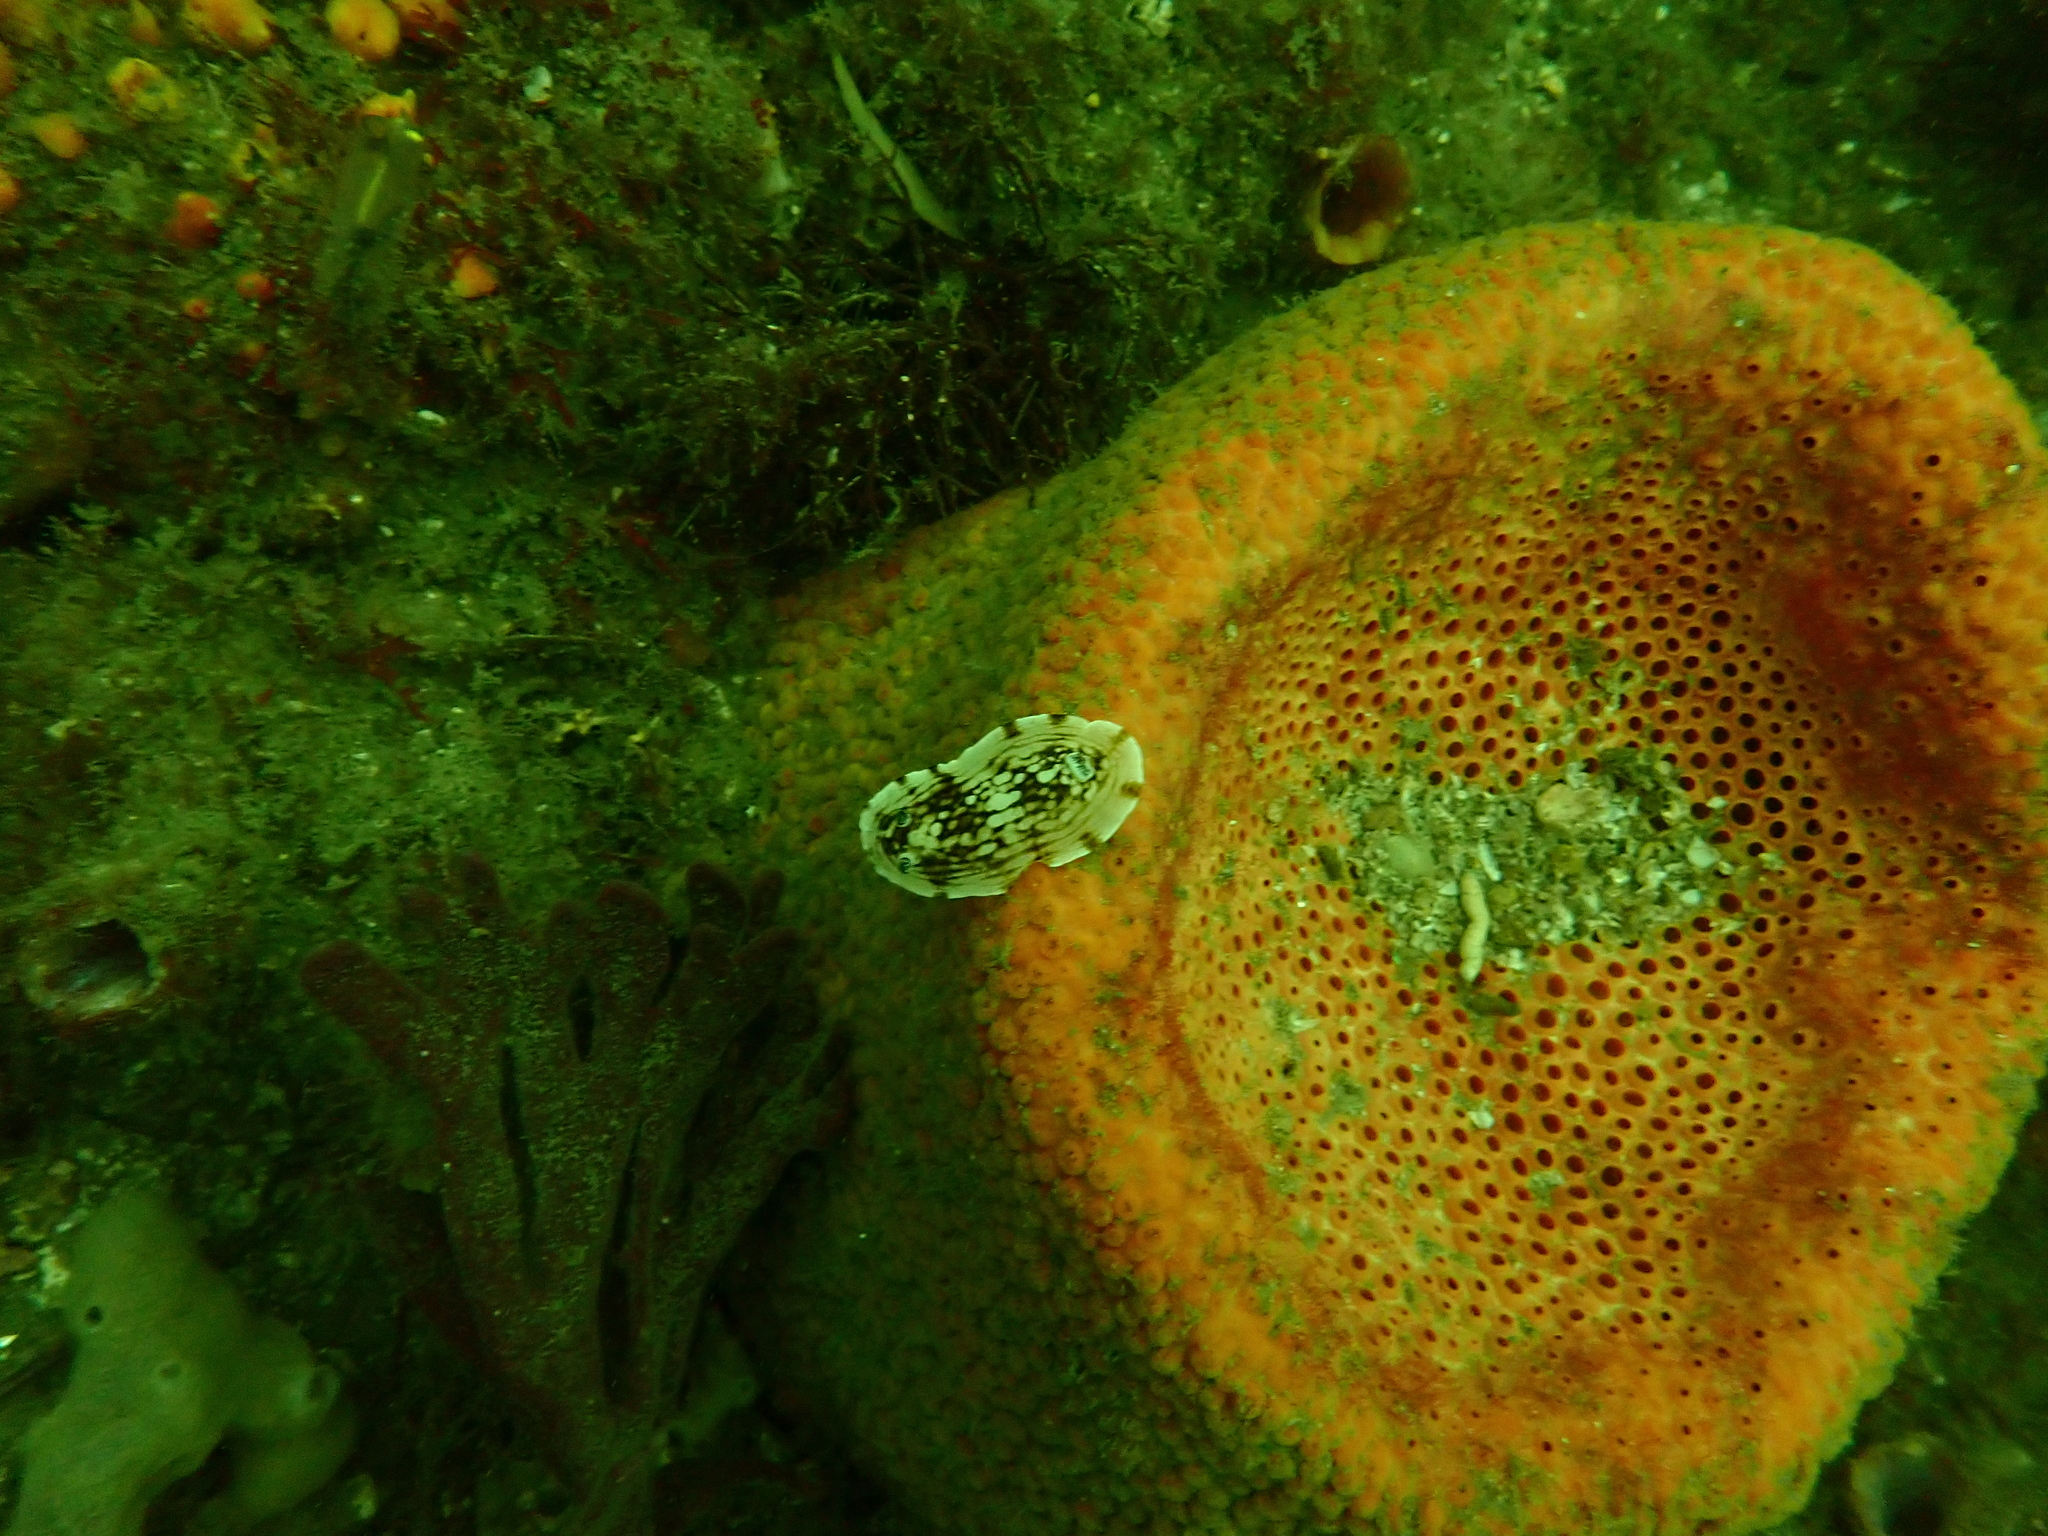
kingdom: Animalia
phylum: Mollusca
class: Gastropoda
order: Nudibranchia
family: Dorididae
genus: Aphelodoris
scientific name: Aphelodoris varia
